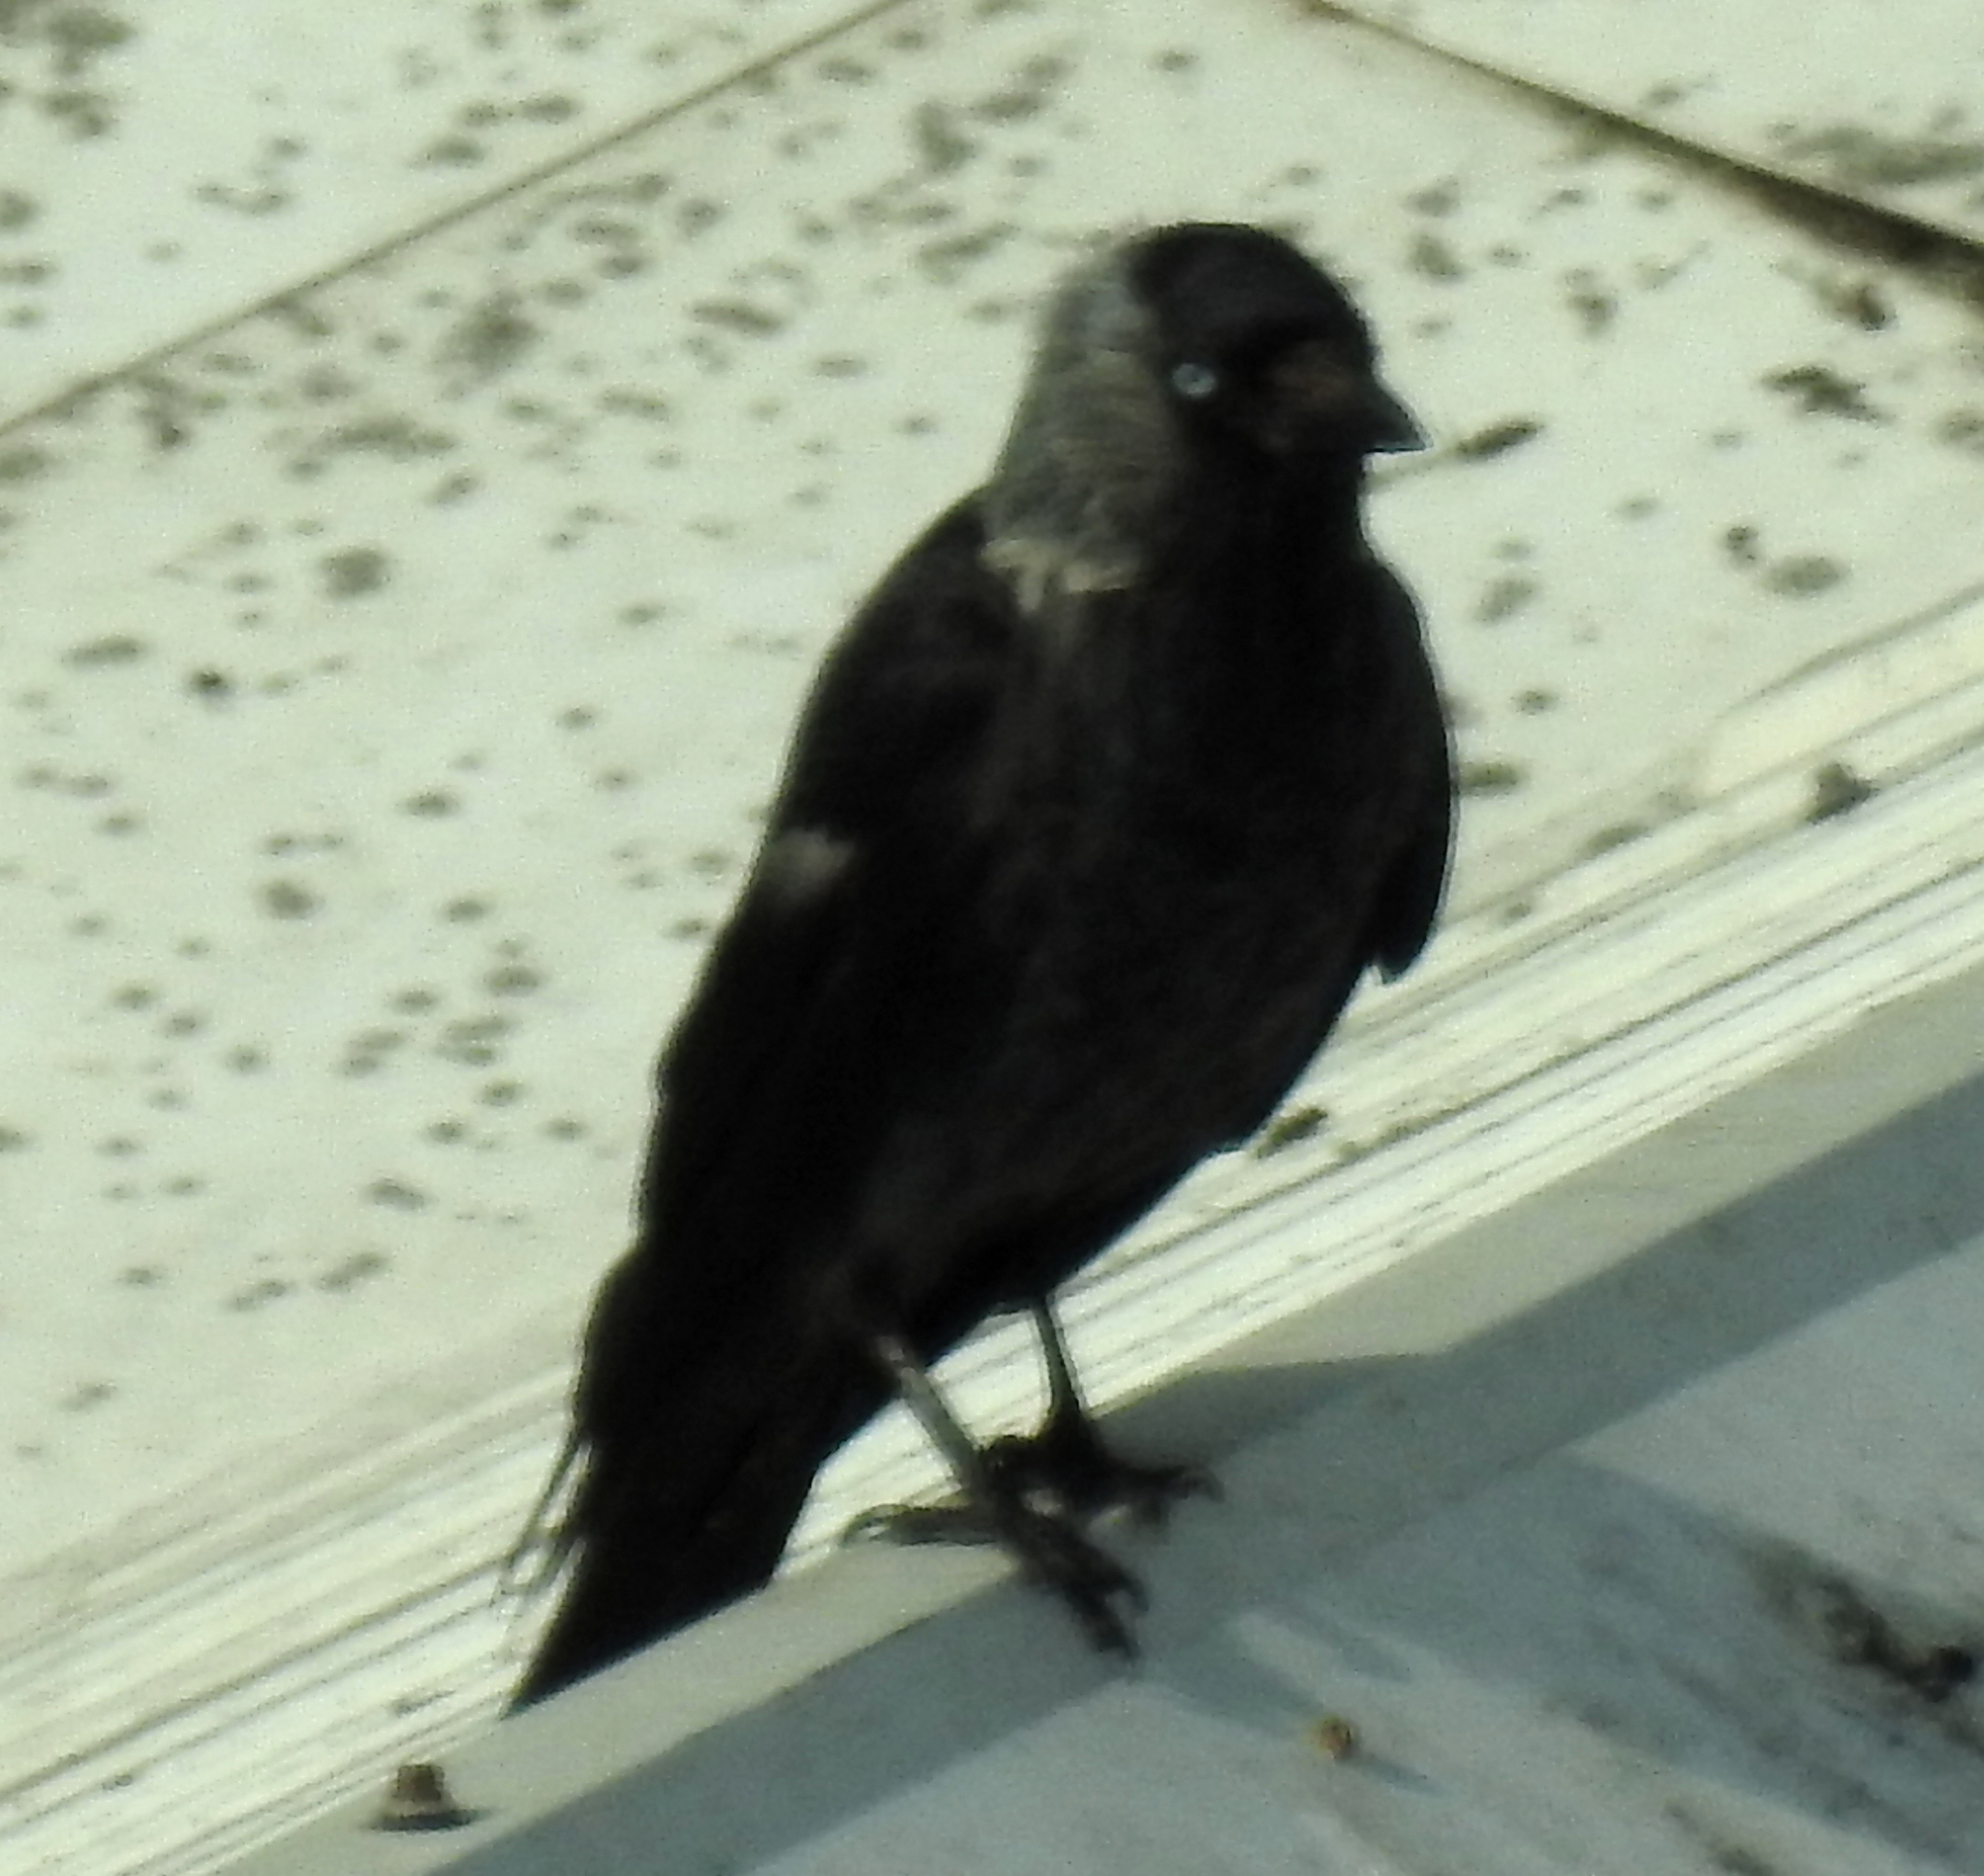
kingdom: Animalia
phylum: Chordata
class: Aves
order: Passeriformes
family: Corvidae
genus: Coloeus
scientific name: Coloeus monedula
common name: Western jackdaw
